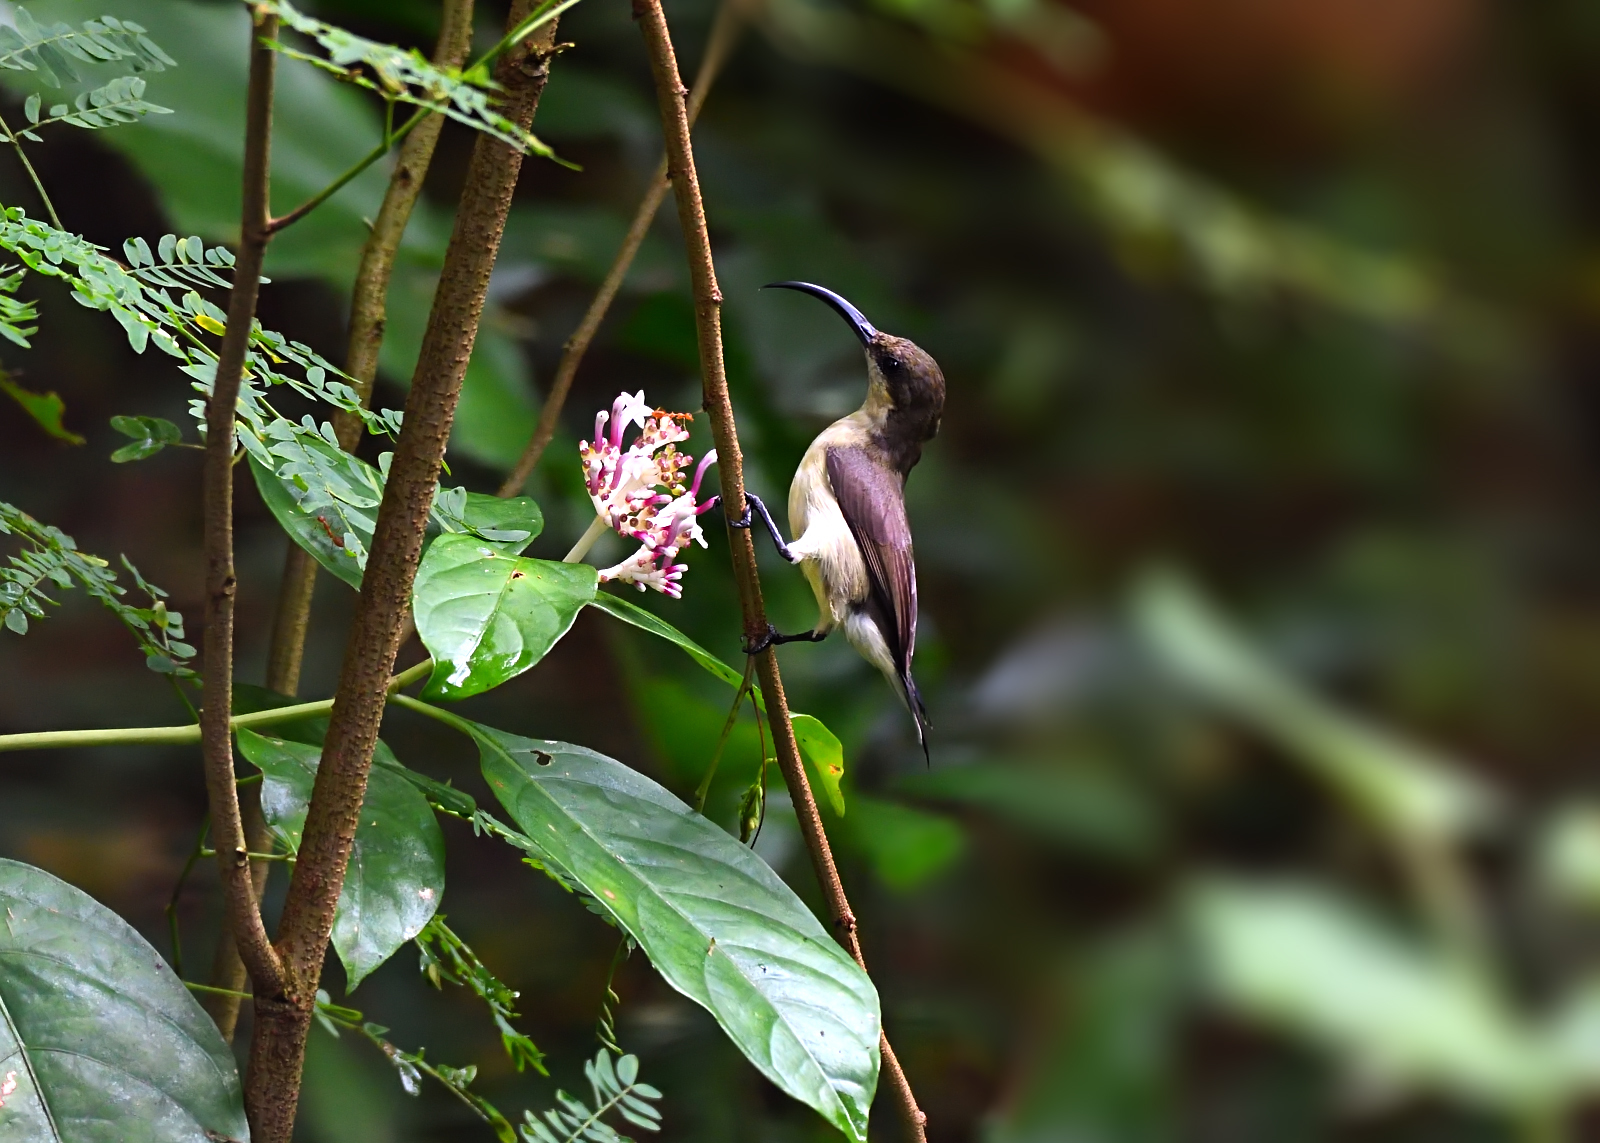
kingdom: Animalia
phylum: Chordata
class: Aves
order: Passeriformes
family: Nectariniidae
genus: Cinnyris
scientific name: Cinnyris lotenius
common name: Loten's sunbird
